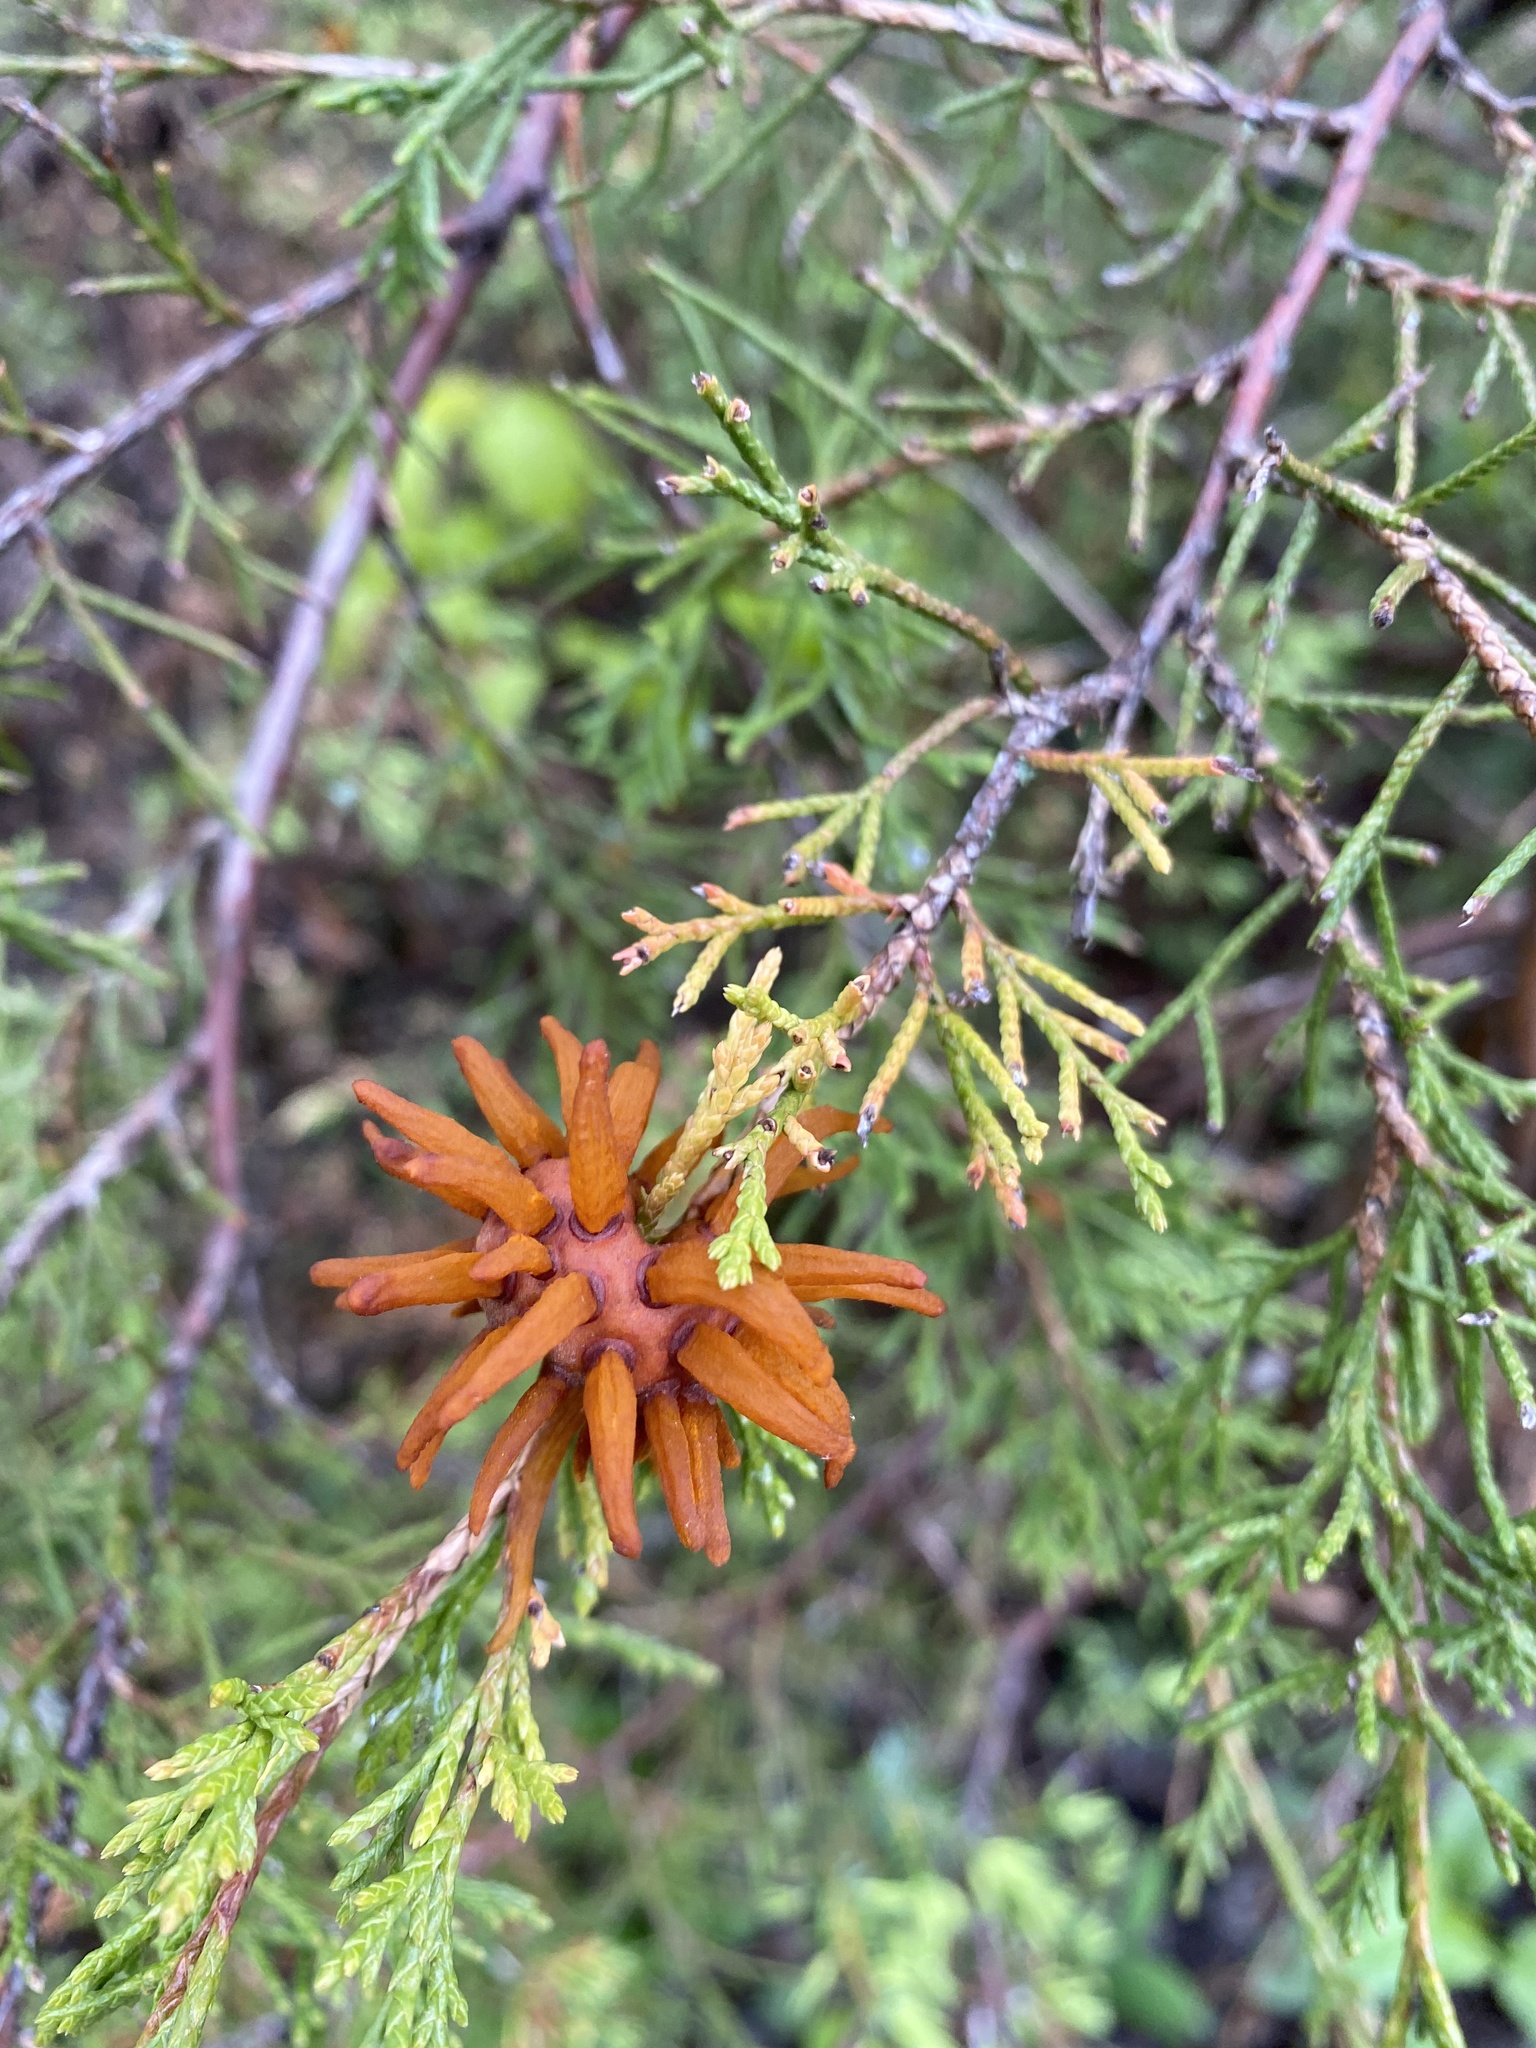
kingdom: Fungi
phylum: Basidiomycota
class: Pucciniomycetes
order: Pucciniales
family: Gymnosporangiaceae
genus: Gymnosporangium
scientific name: Gymnosporangium juniperi-virginianae
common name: Juniper-apple rust
